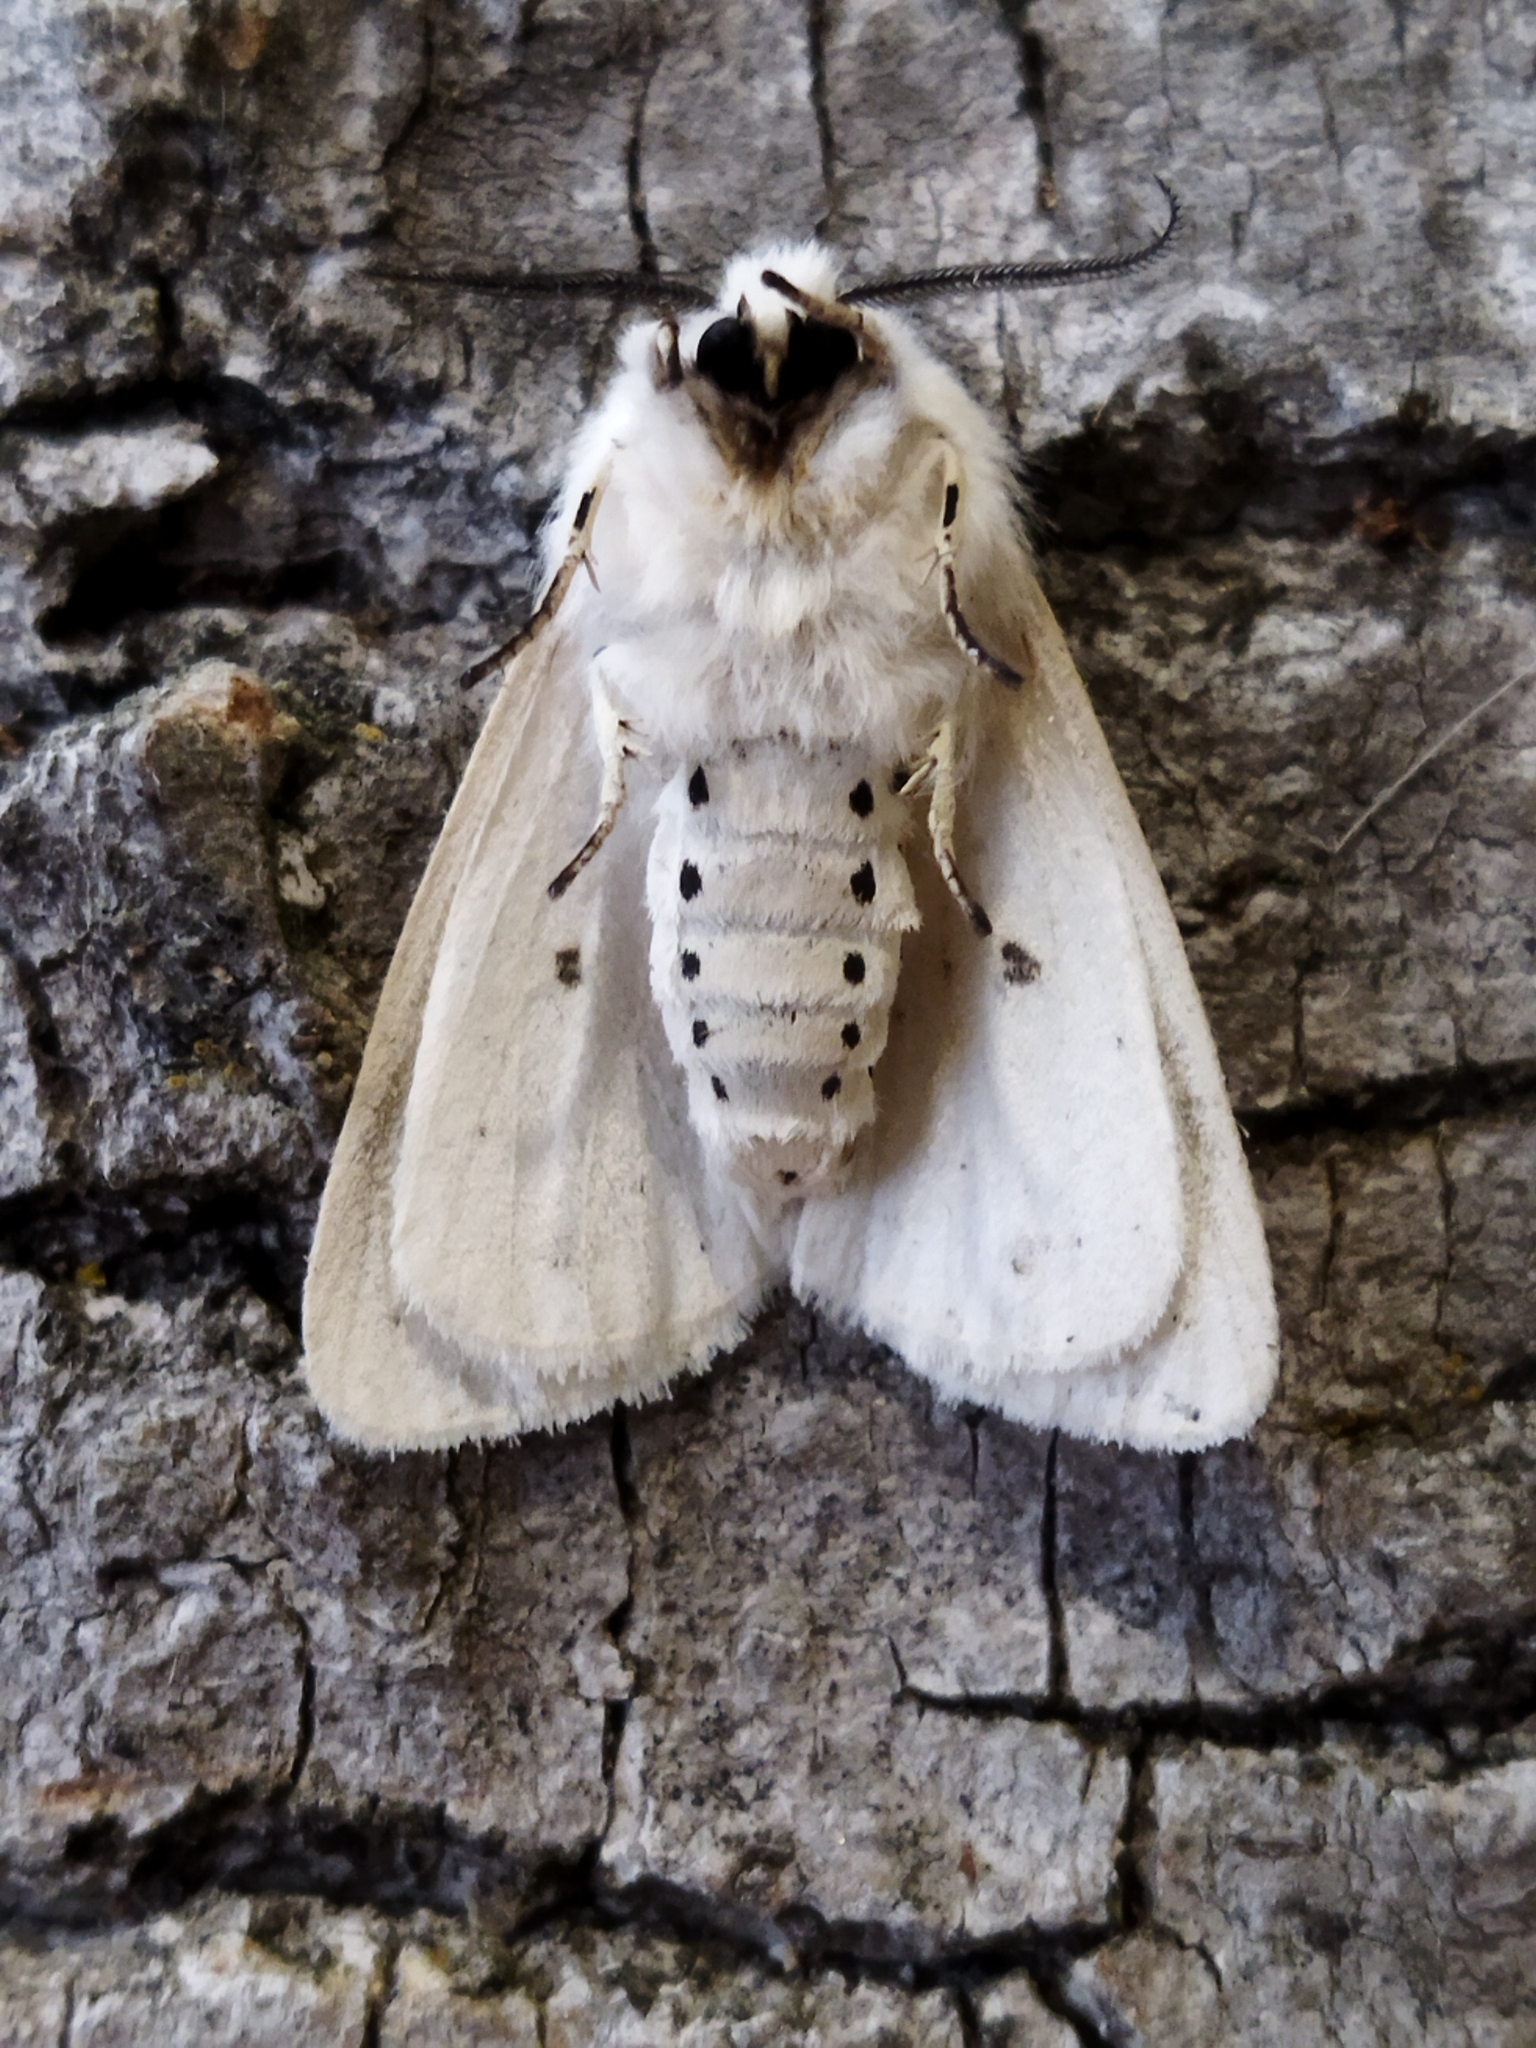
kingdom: Animalia
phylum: Arthropoda
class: Insecta
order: Lepidoptera
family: Erebidae
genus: Spilosoma
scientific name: Spilosoma urticae
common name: Water ermine
